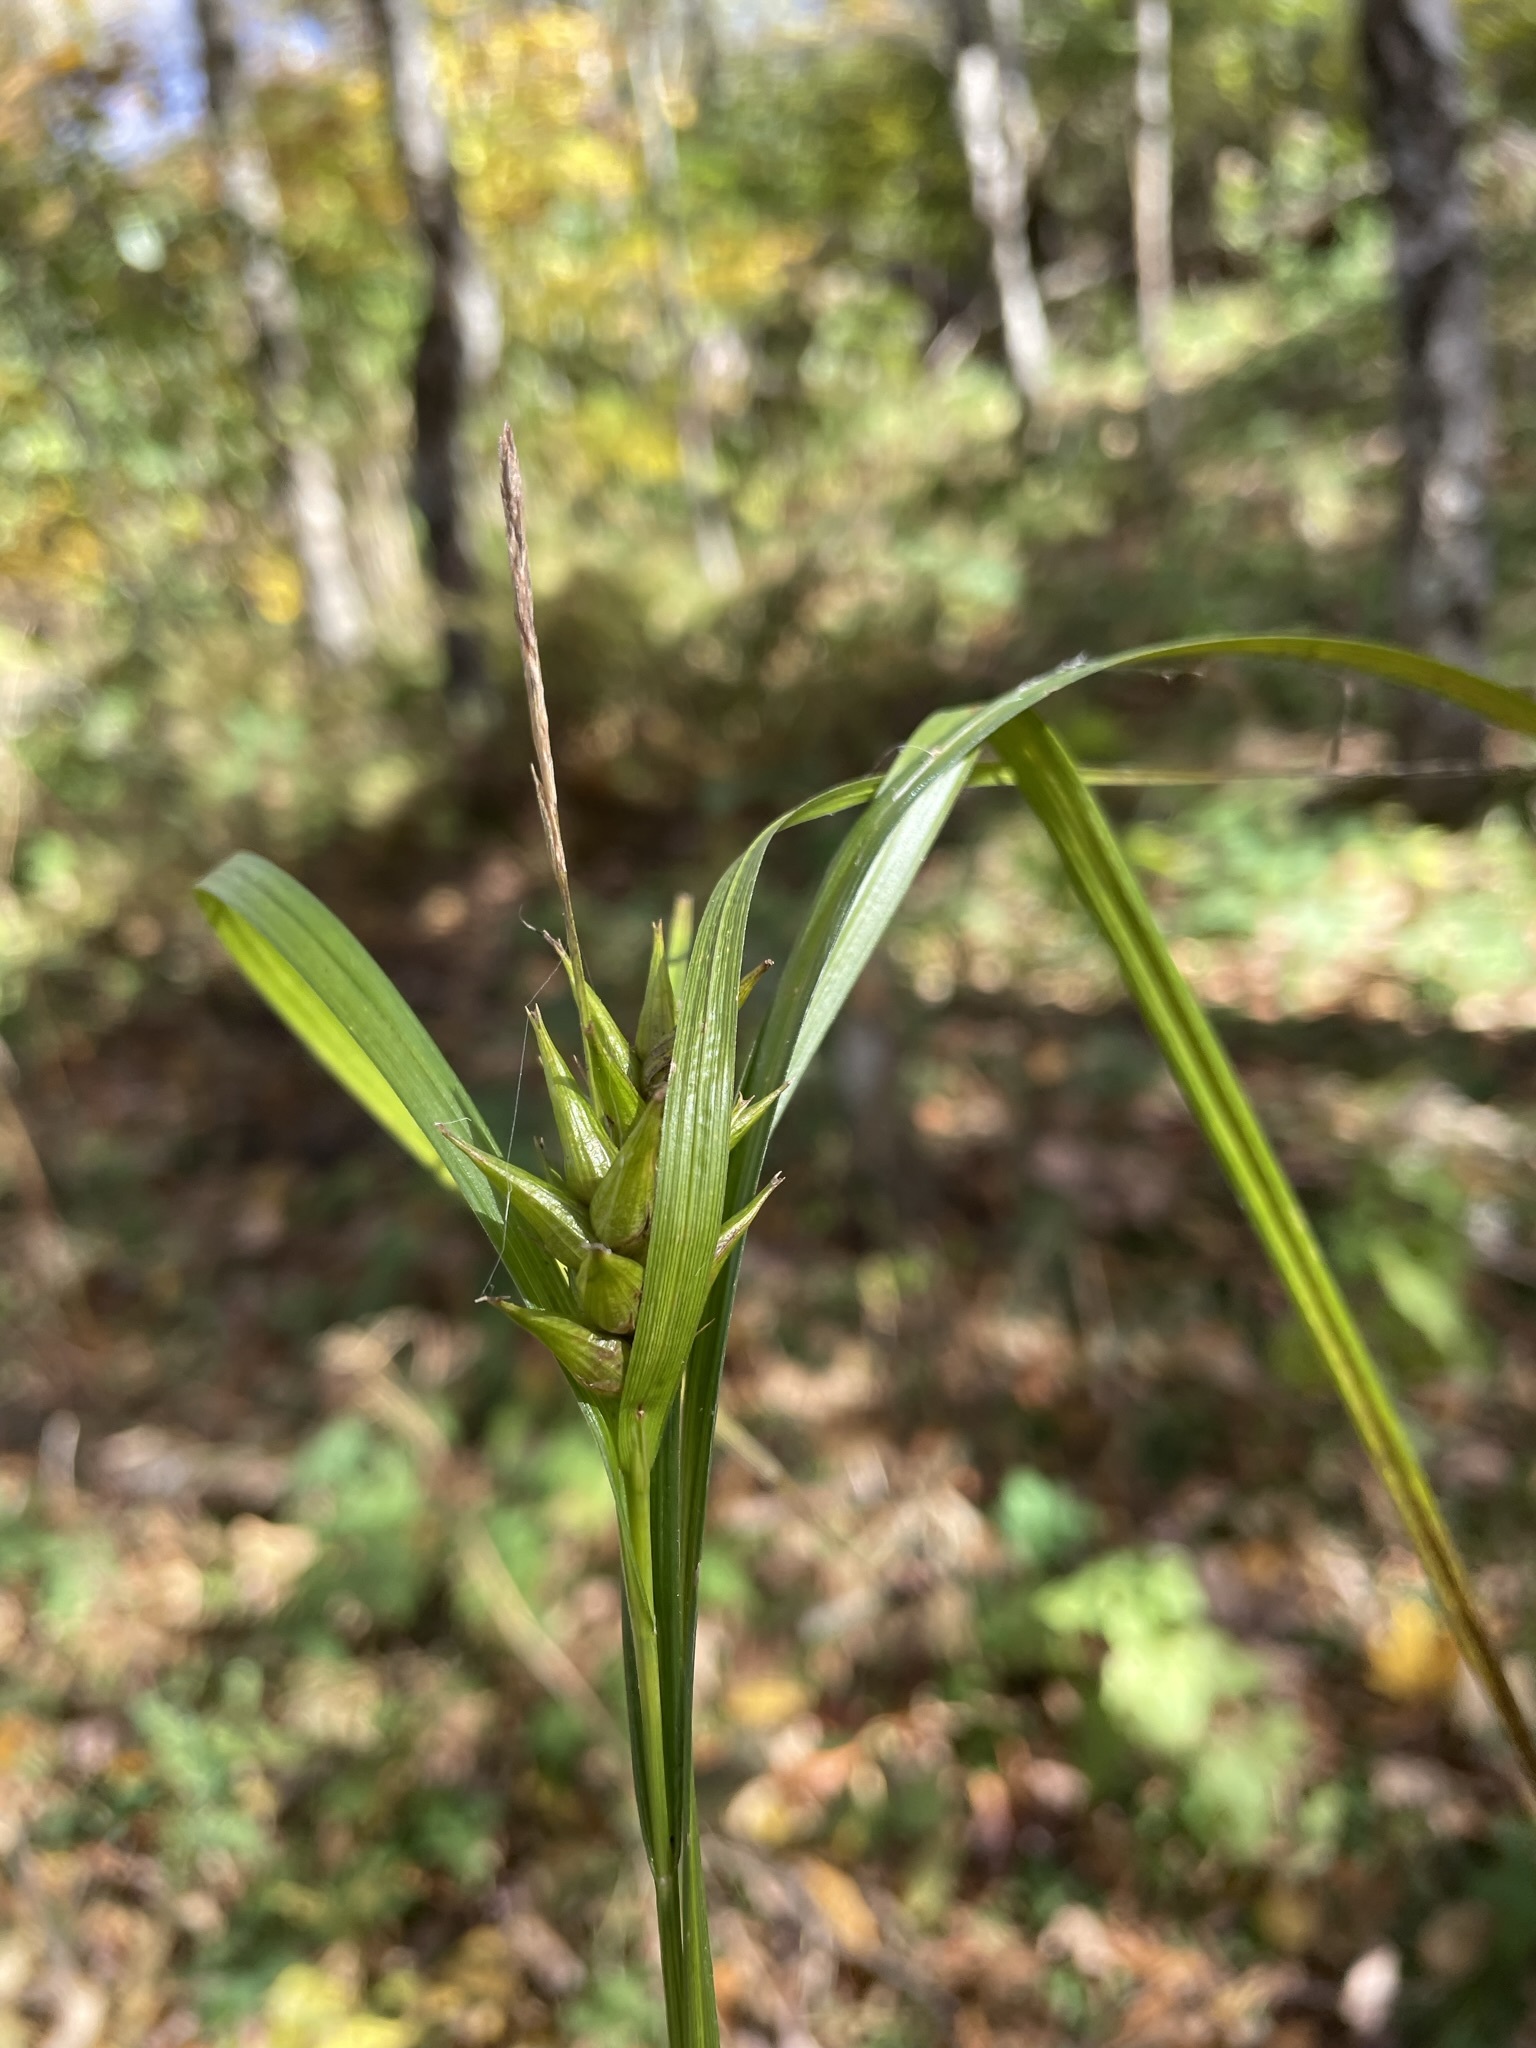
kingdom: Plantae
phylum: Tracheophyta
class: Liliopsida
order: Poales
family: Cyperaceae
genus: Carex
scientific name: Carex intumescens
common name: Greater bladder sedge
